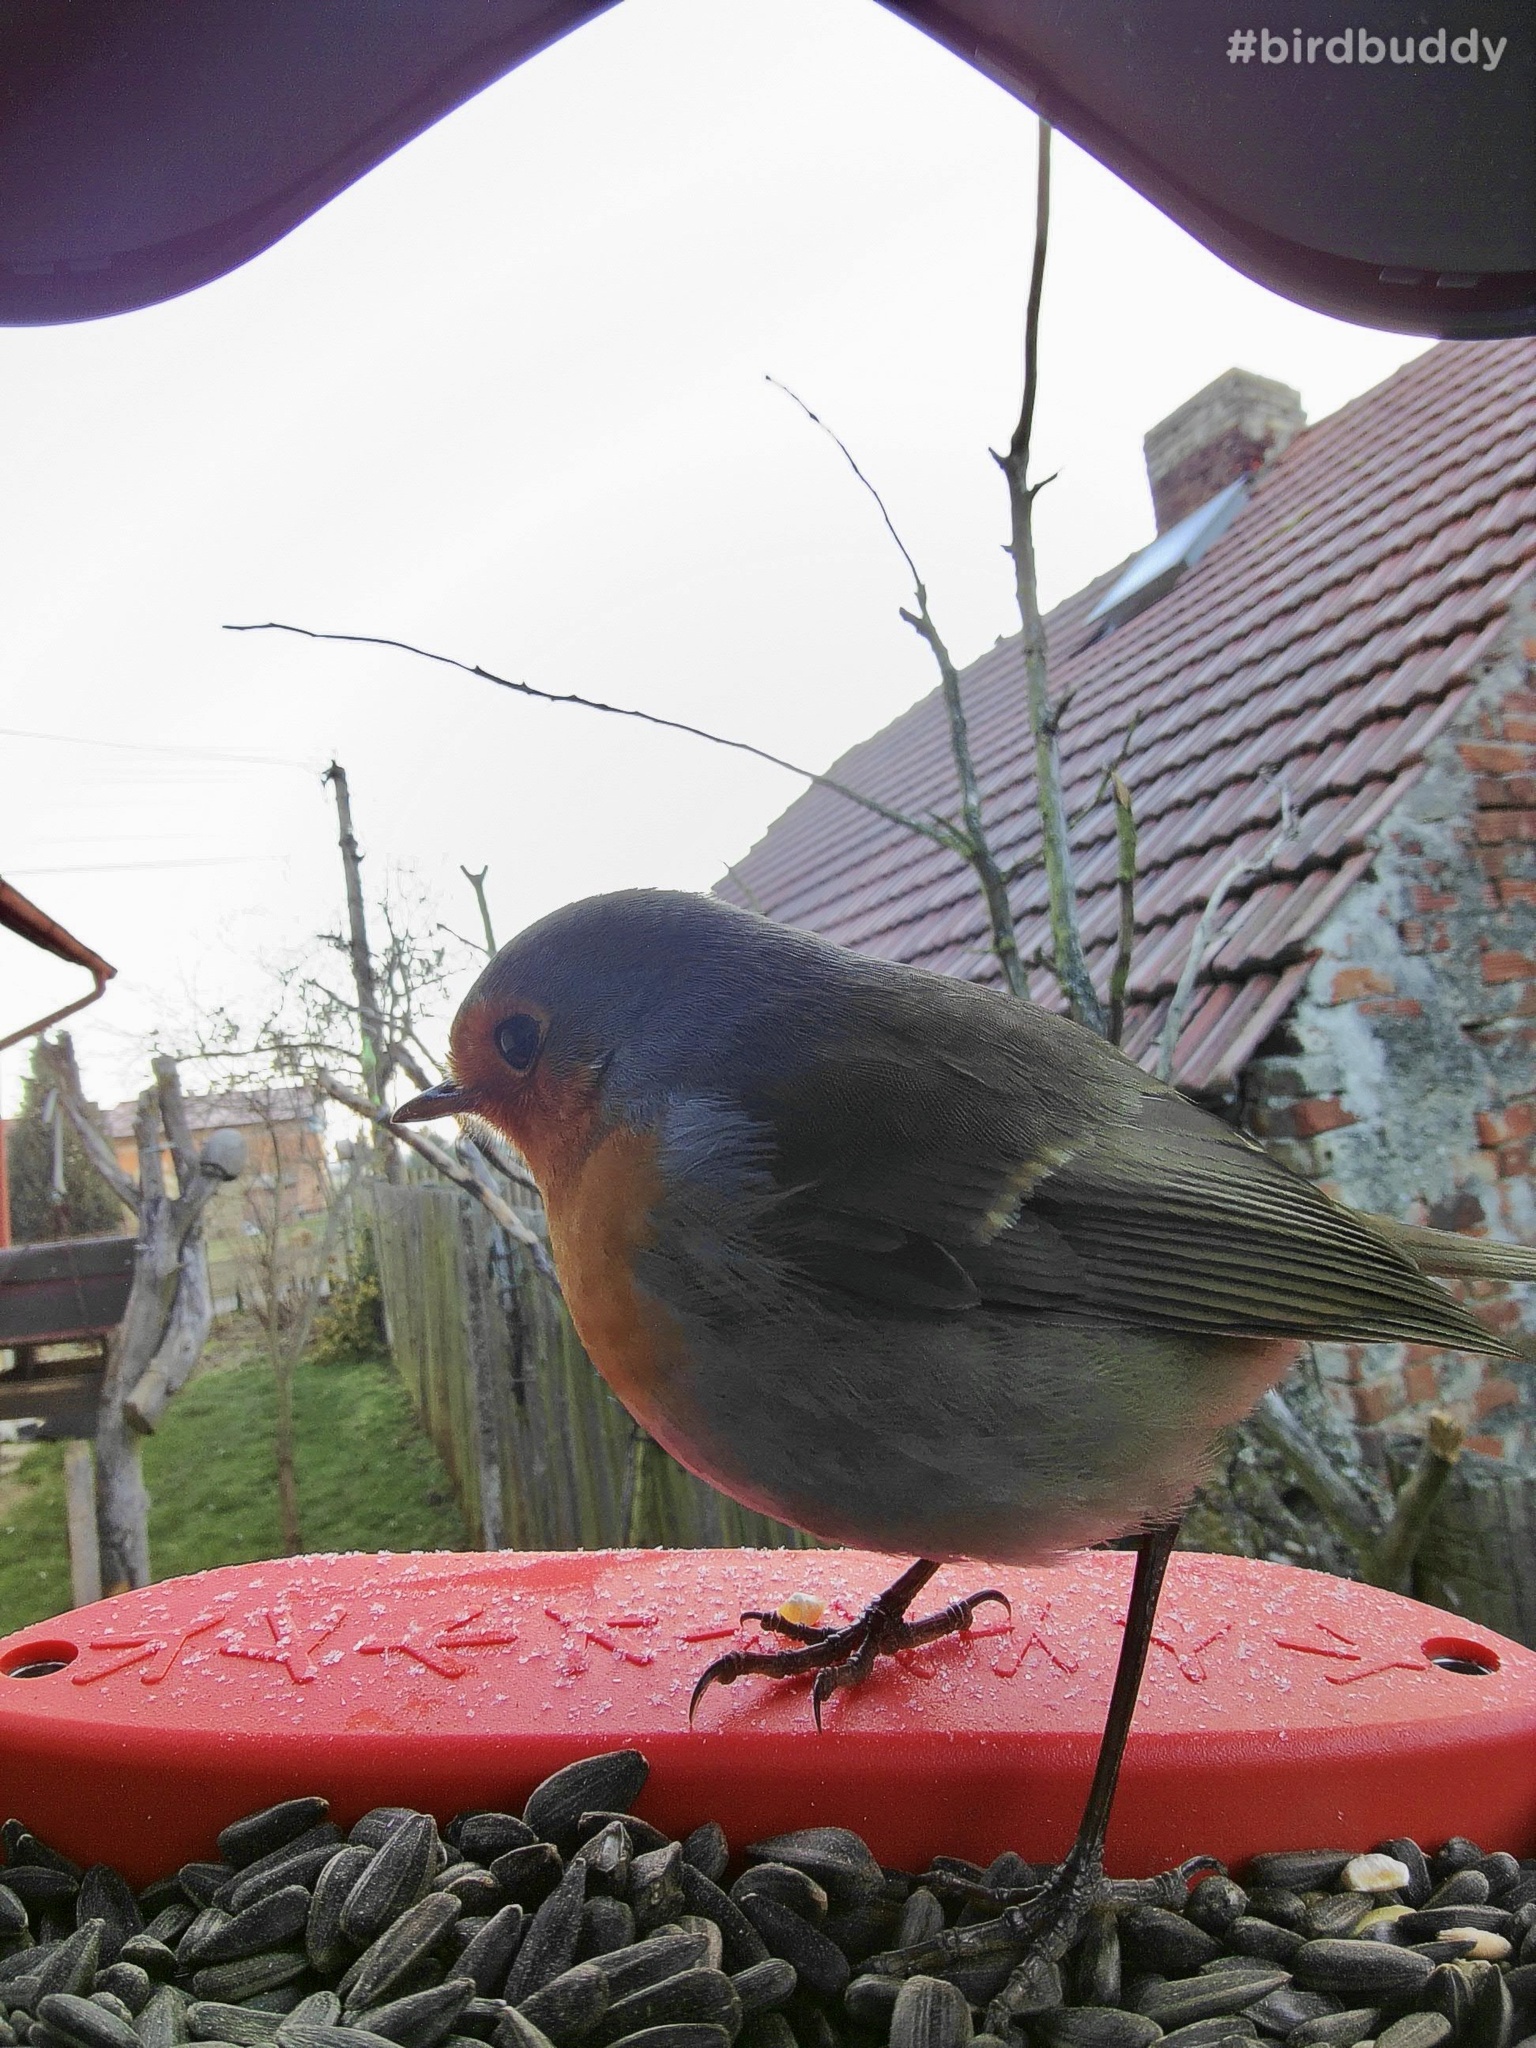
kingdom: Animalia
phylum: Chordata
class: Aves
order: Passeriformes
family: Muscicapidae
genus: Erithacus
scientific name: Erithacus rubecula
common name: European robin
